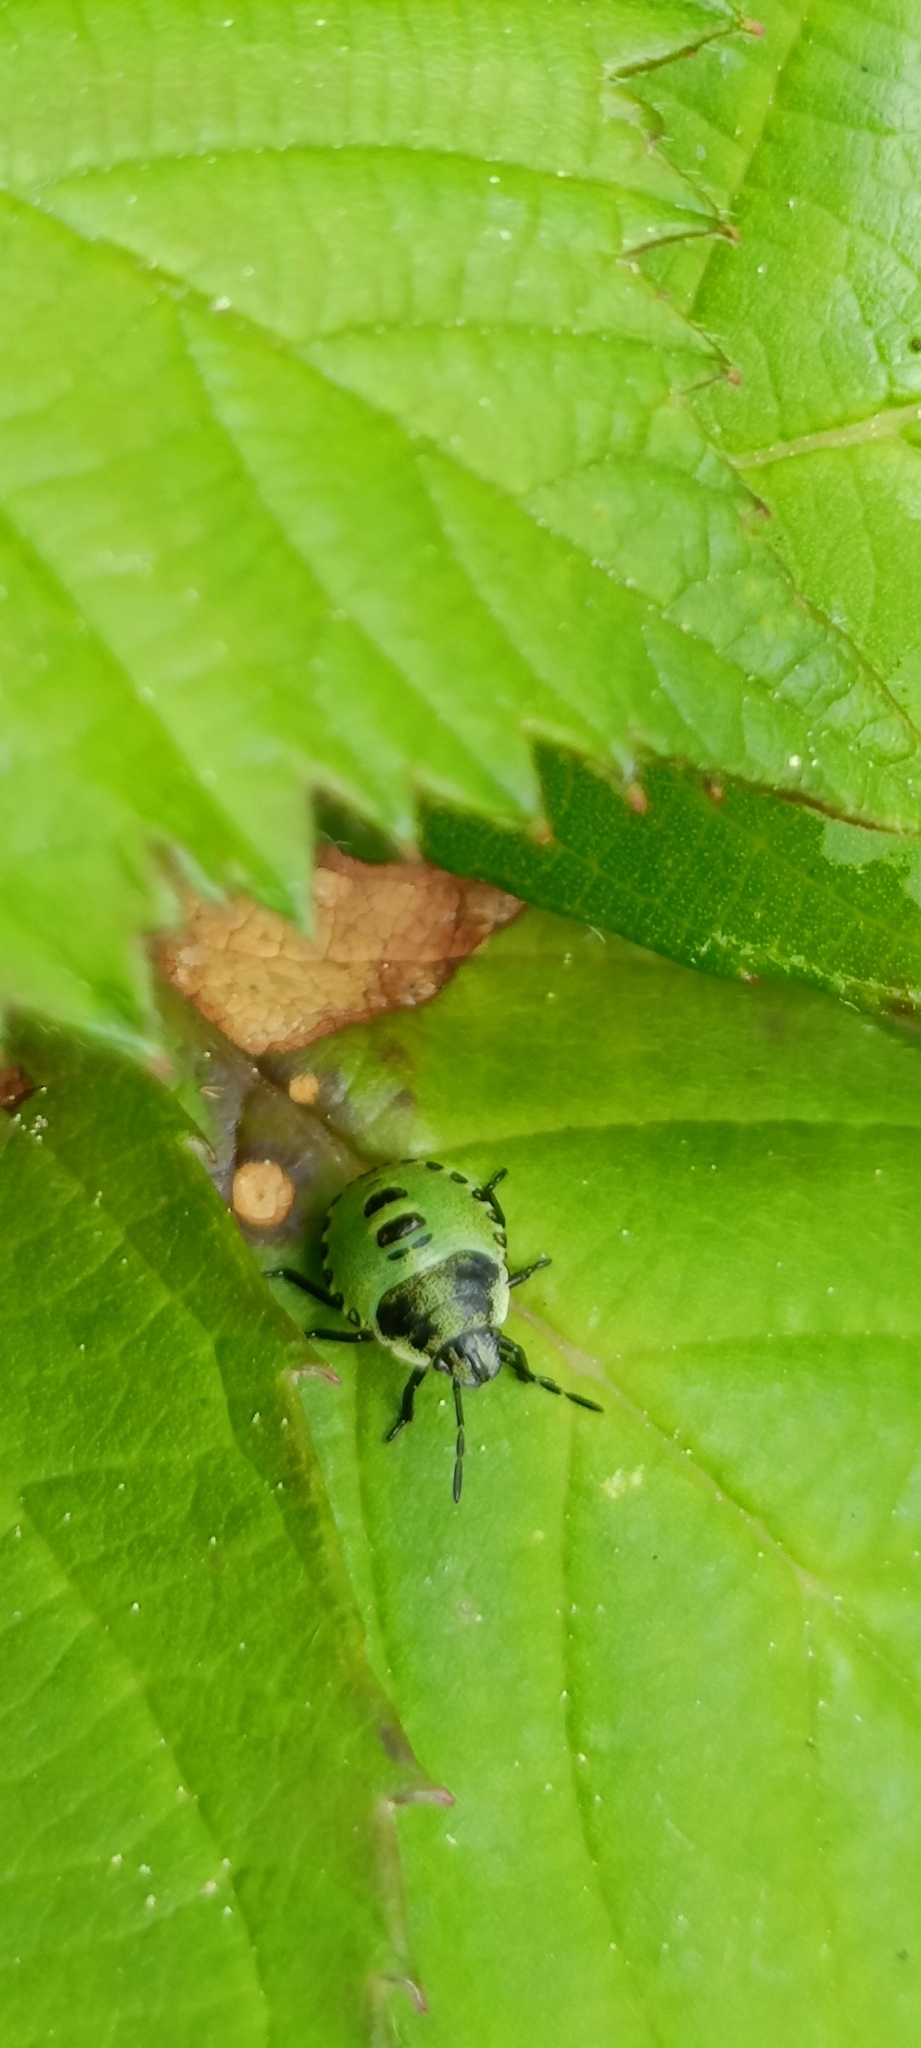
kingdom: Animalia
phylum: Arthropoda
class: Insecta
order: Hemiptera
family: Pentatomidae
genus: Palomena
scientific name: Palomena prasina
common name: Green shieldbug
